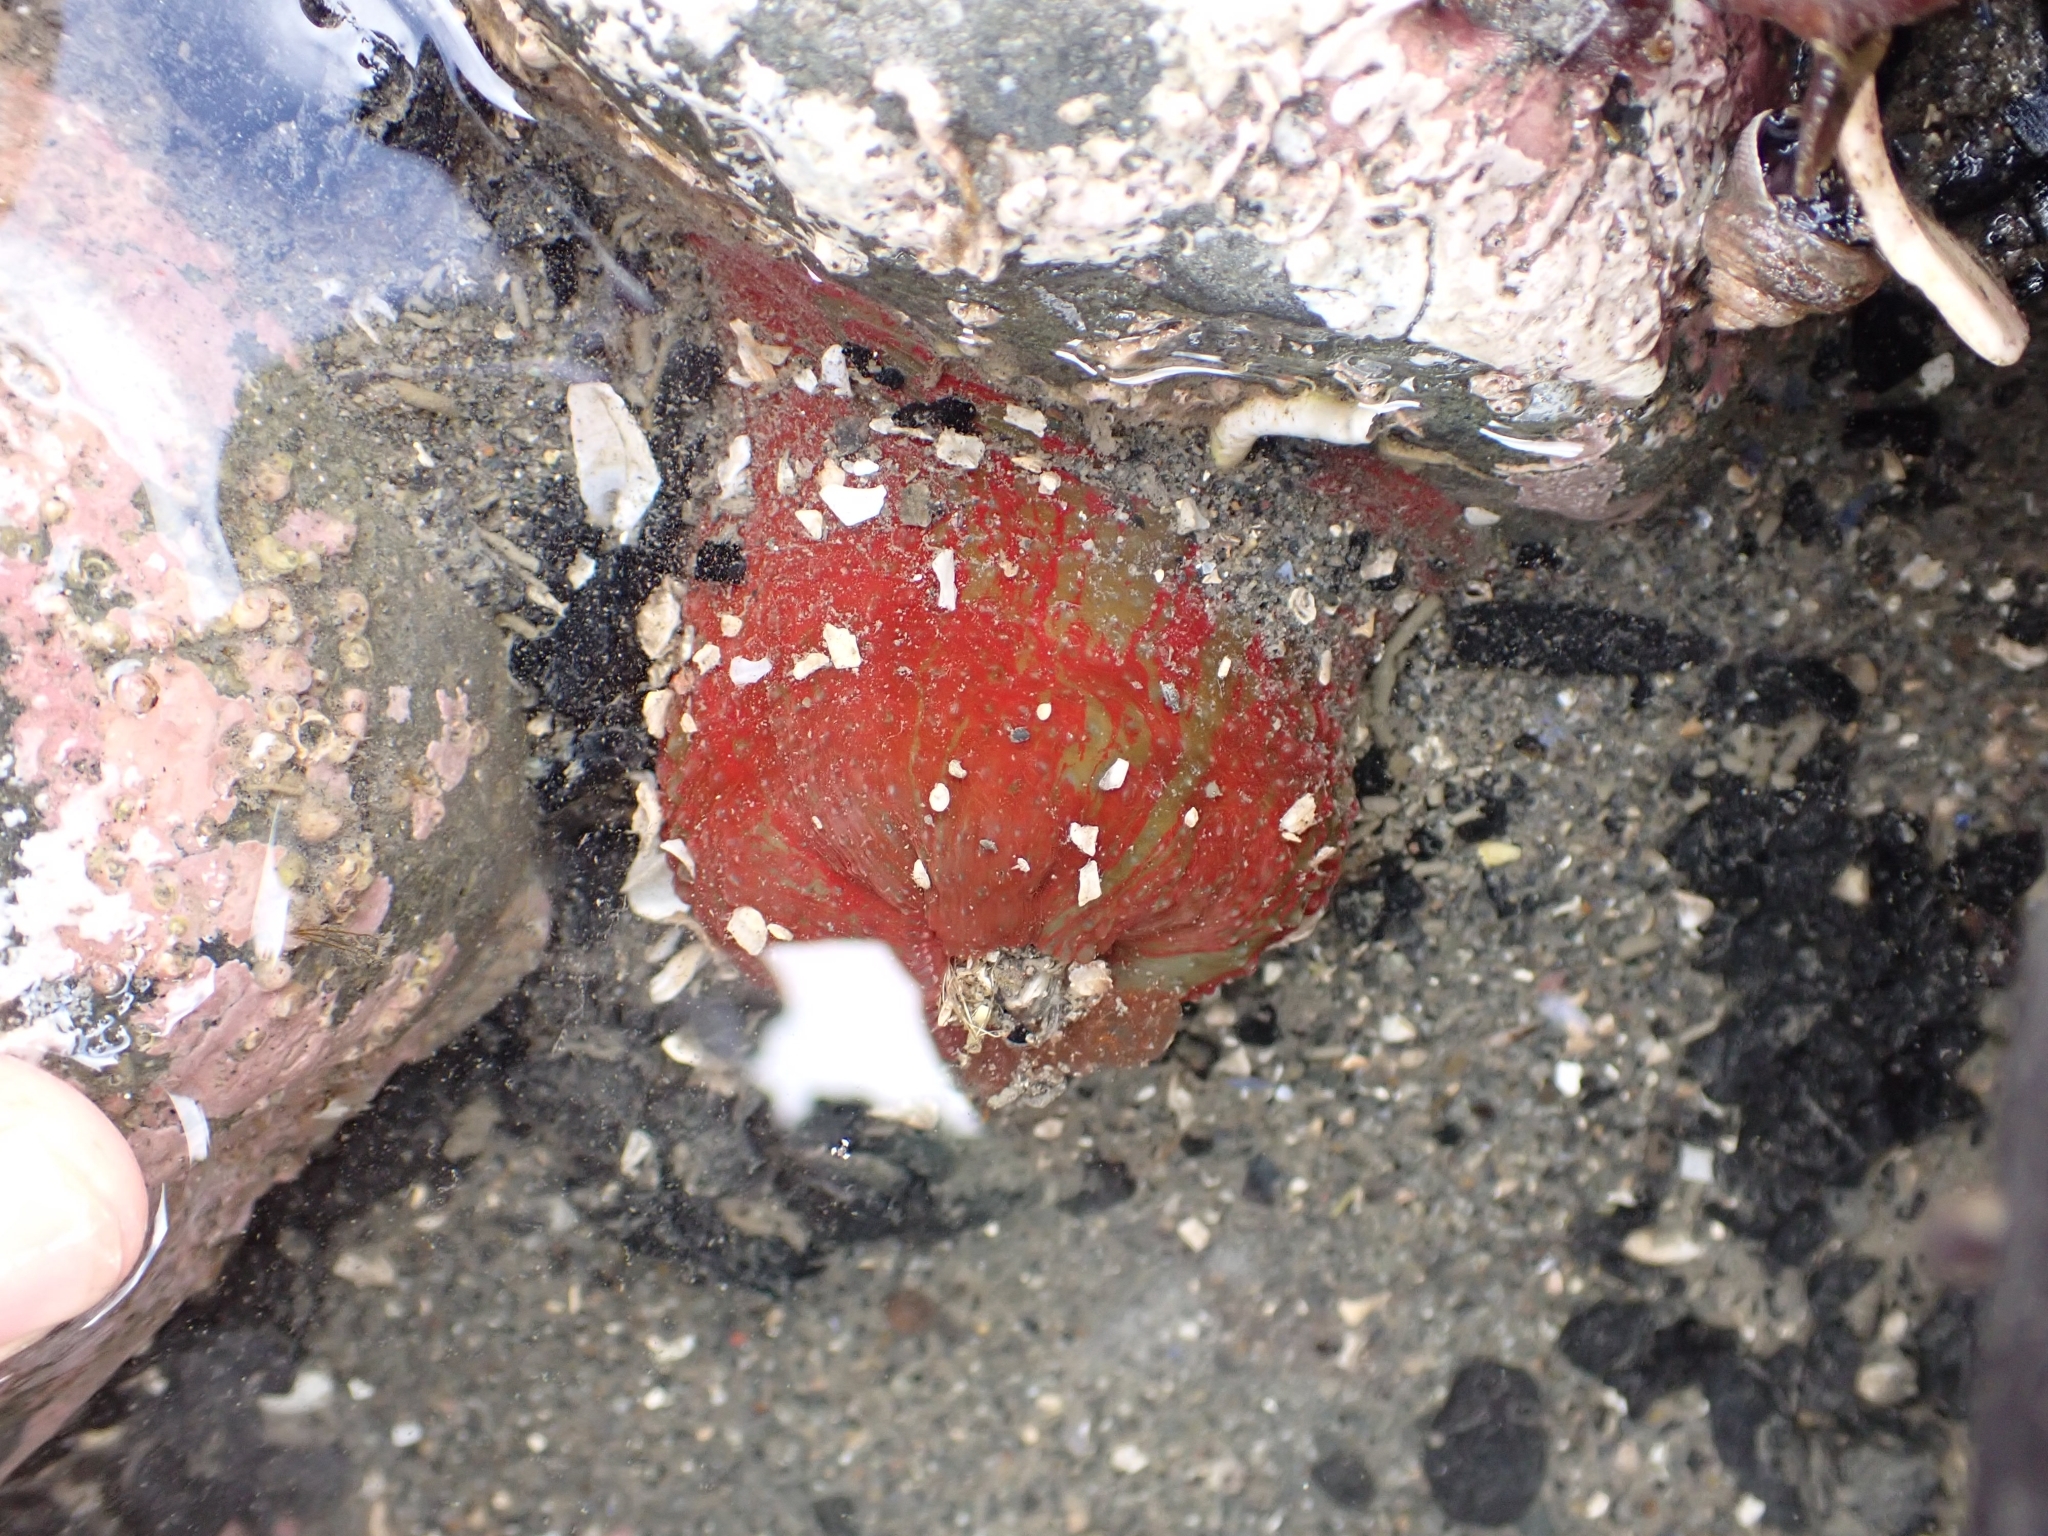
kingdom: Animalia
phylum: Cnidaria
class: Anthozoa
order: Actiniaria
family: Actiniidae
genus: Urticina
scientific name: Urticina grebelnyi
